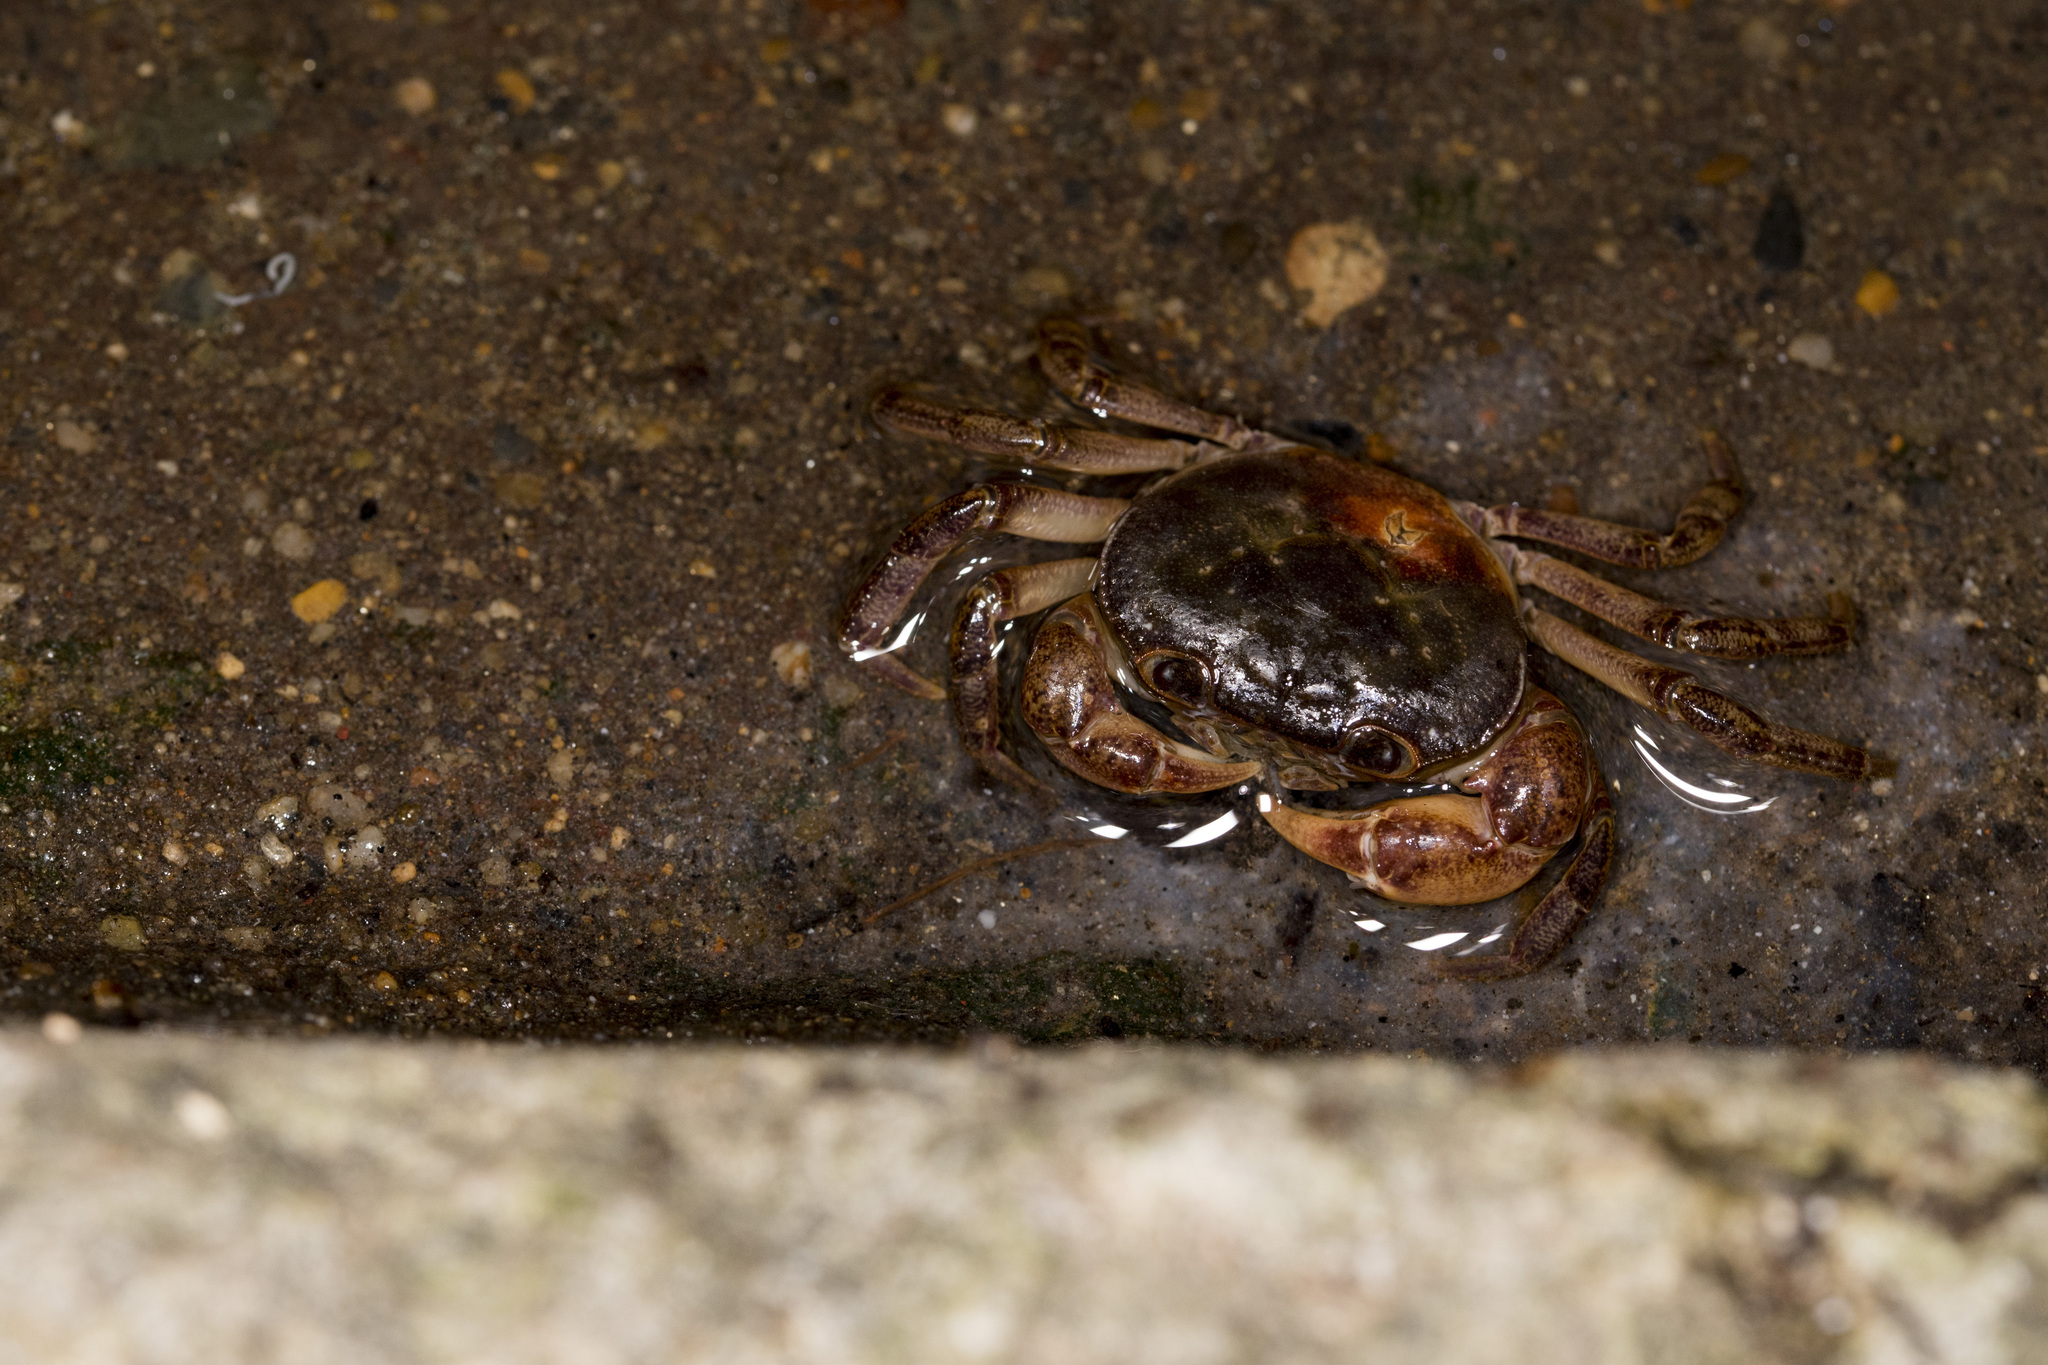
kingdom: Animalia
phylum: Arthropoda
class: Malacostraca
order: Decapoda
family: Potamidae
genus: Geothelphusa
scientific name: Geothelphusa dehaani
